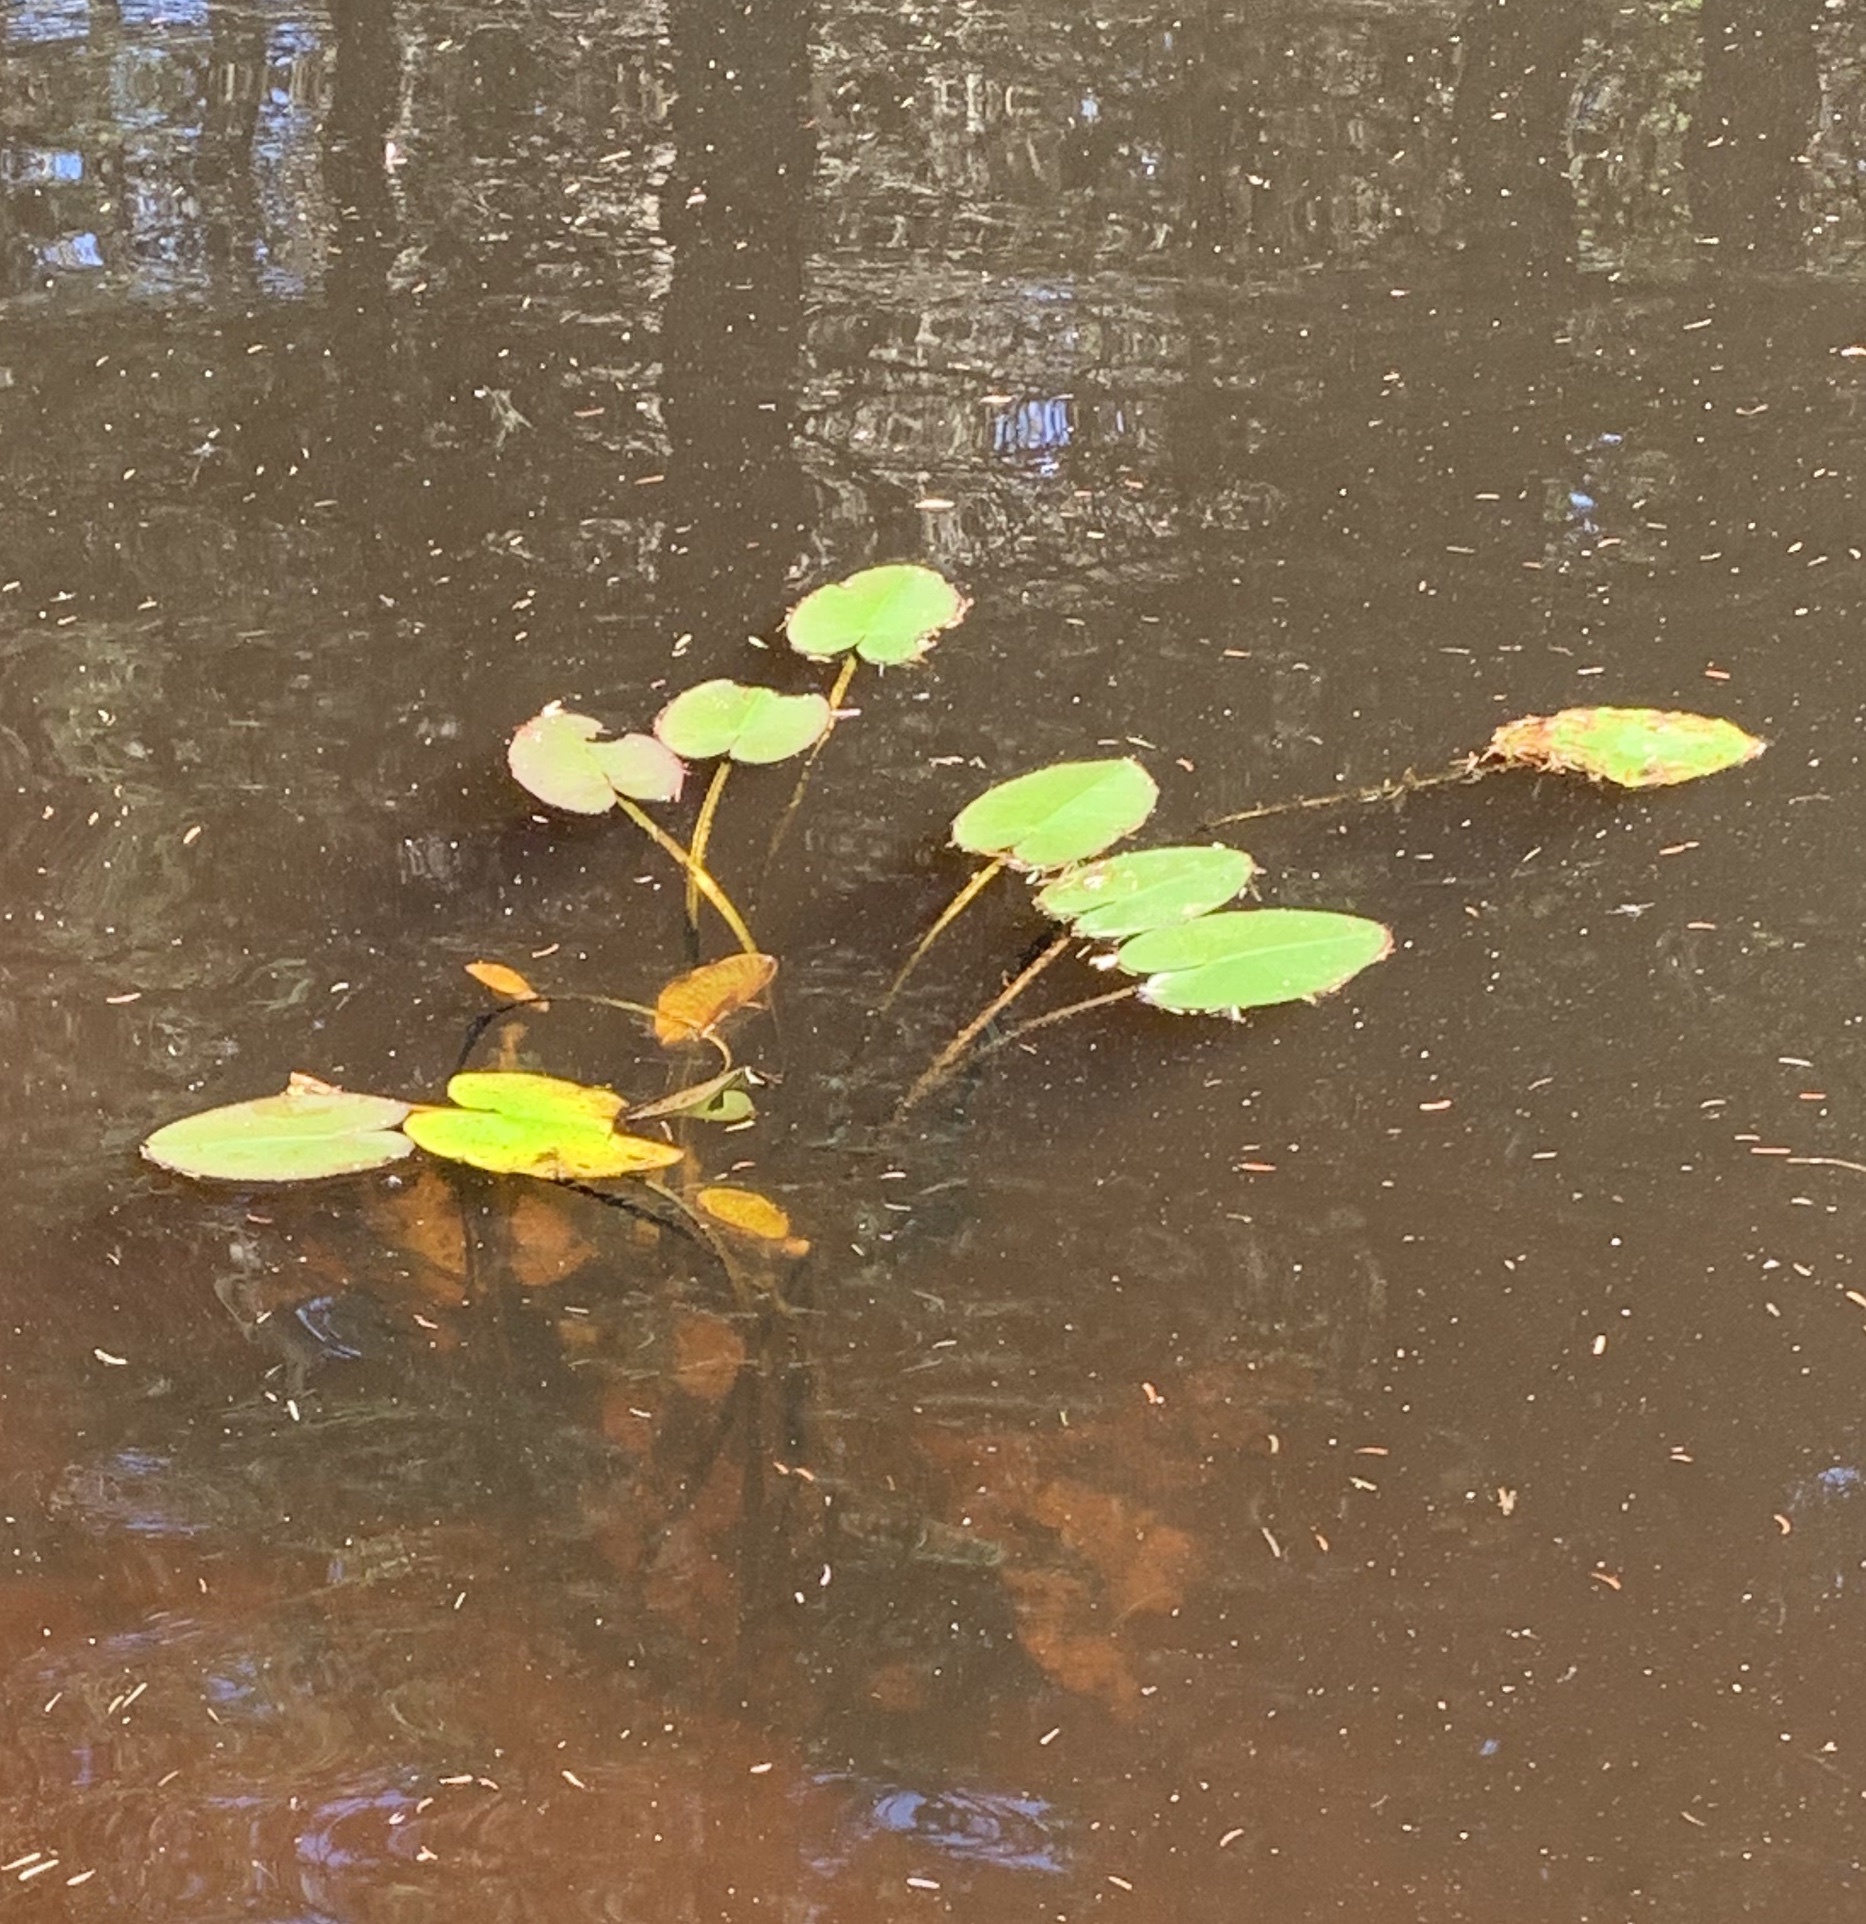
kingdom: Plantae
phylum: Tracheophyta
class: Magnoliopsida
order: Nymphaeales
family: Nymphaeaceae
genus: Nuphar
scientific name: Nuphar variegata
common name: Beaver-root
